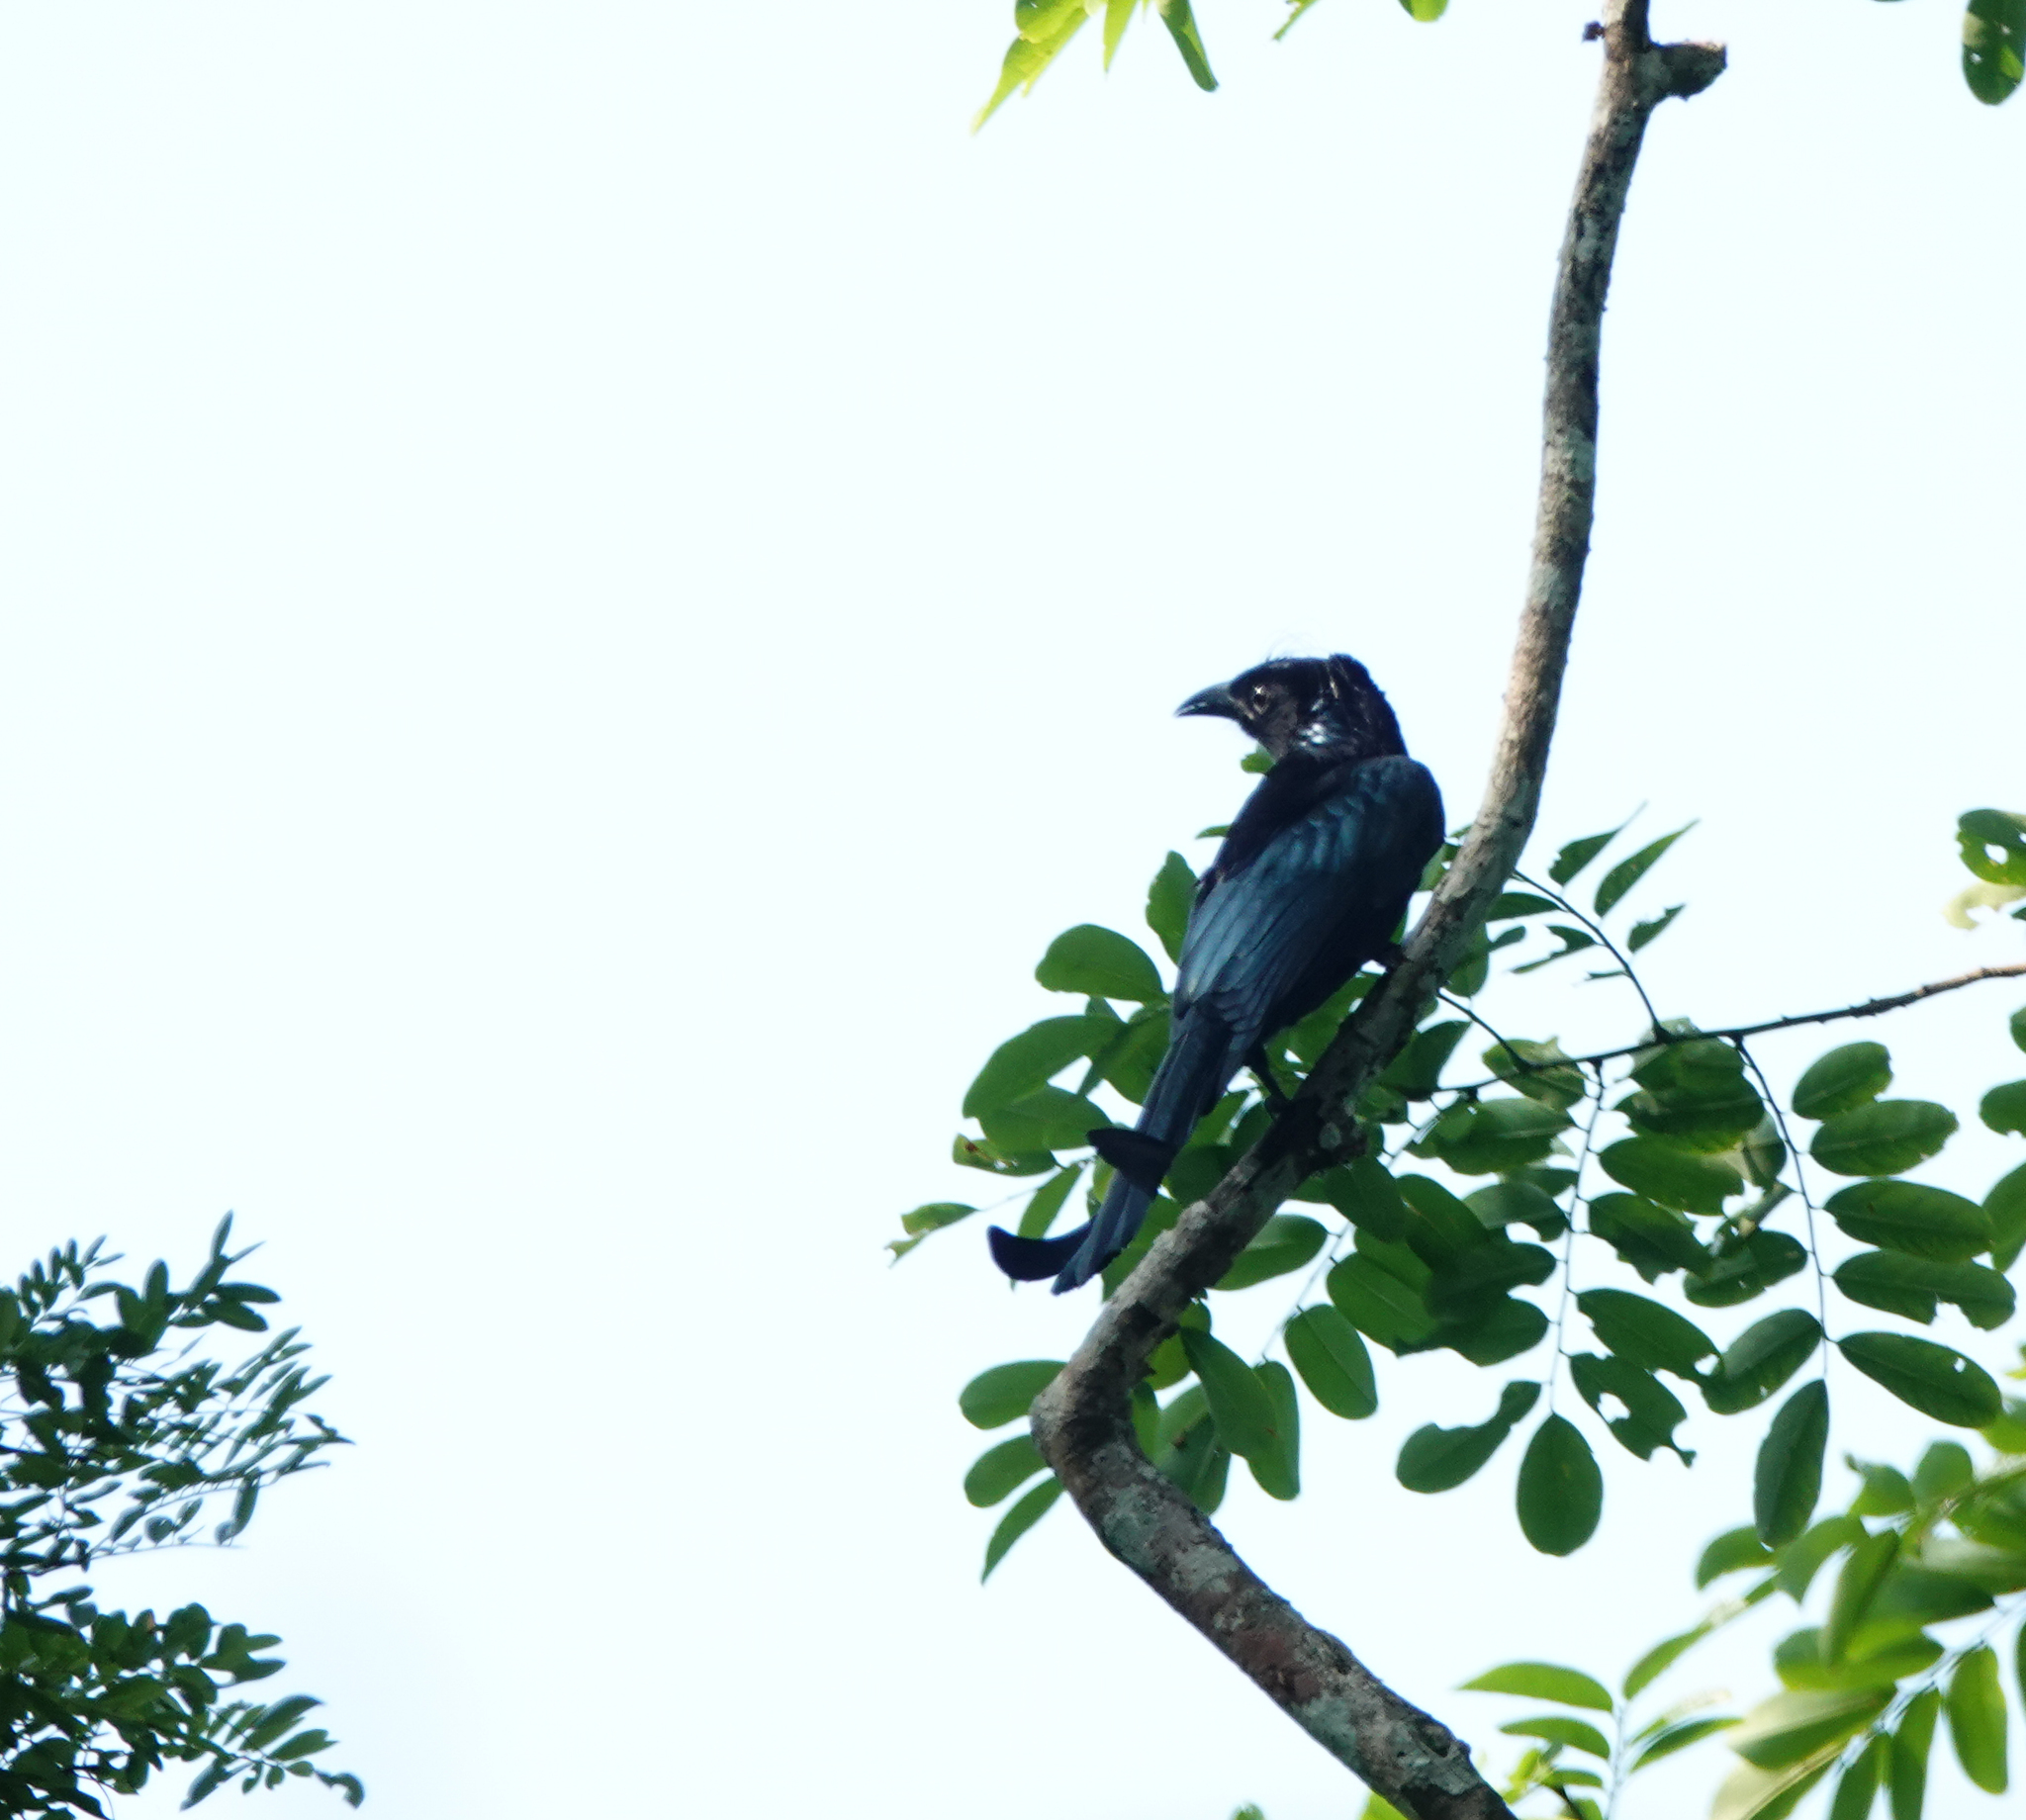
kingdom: Animalia
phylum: Chordata
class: Aves
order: Passeriformes
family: Dicruridae
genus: Dicrurus
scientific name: Dicrurus hottentottus
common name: Hair-crested drongo
